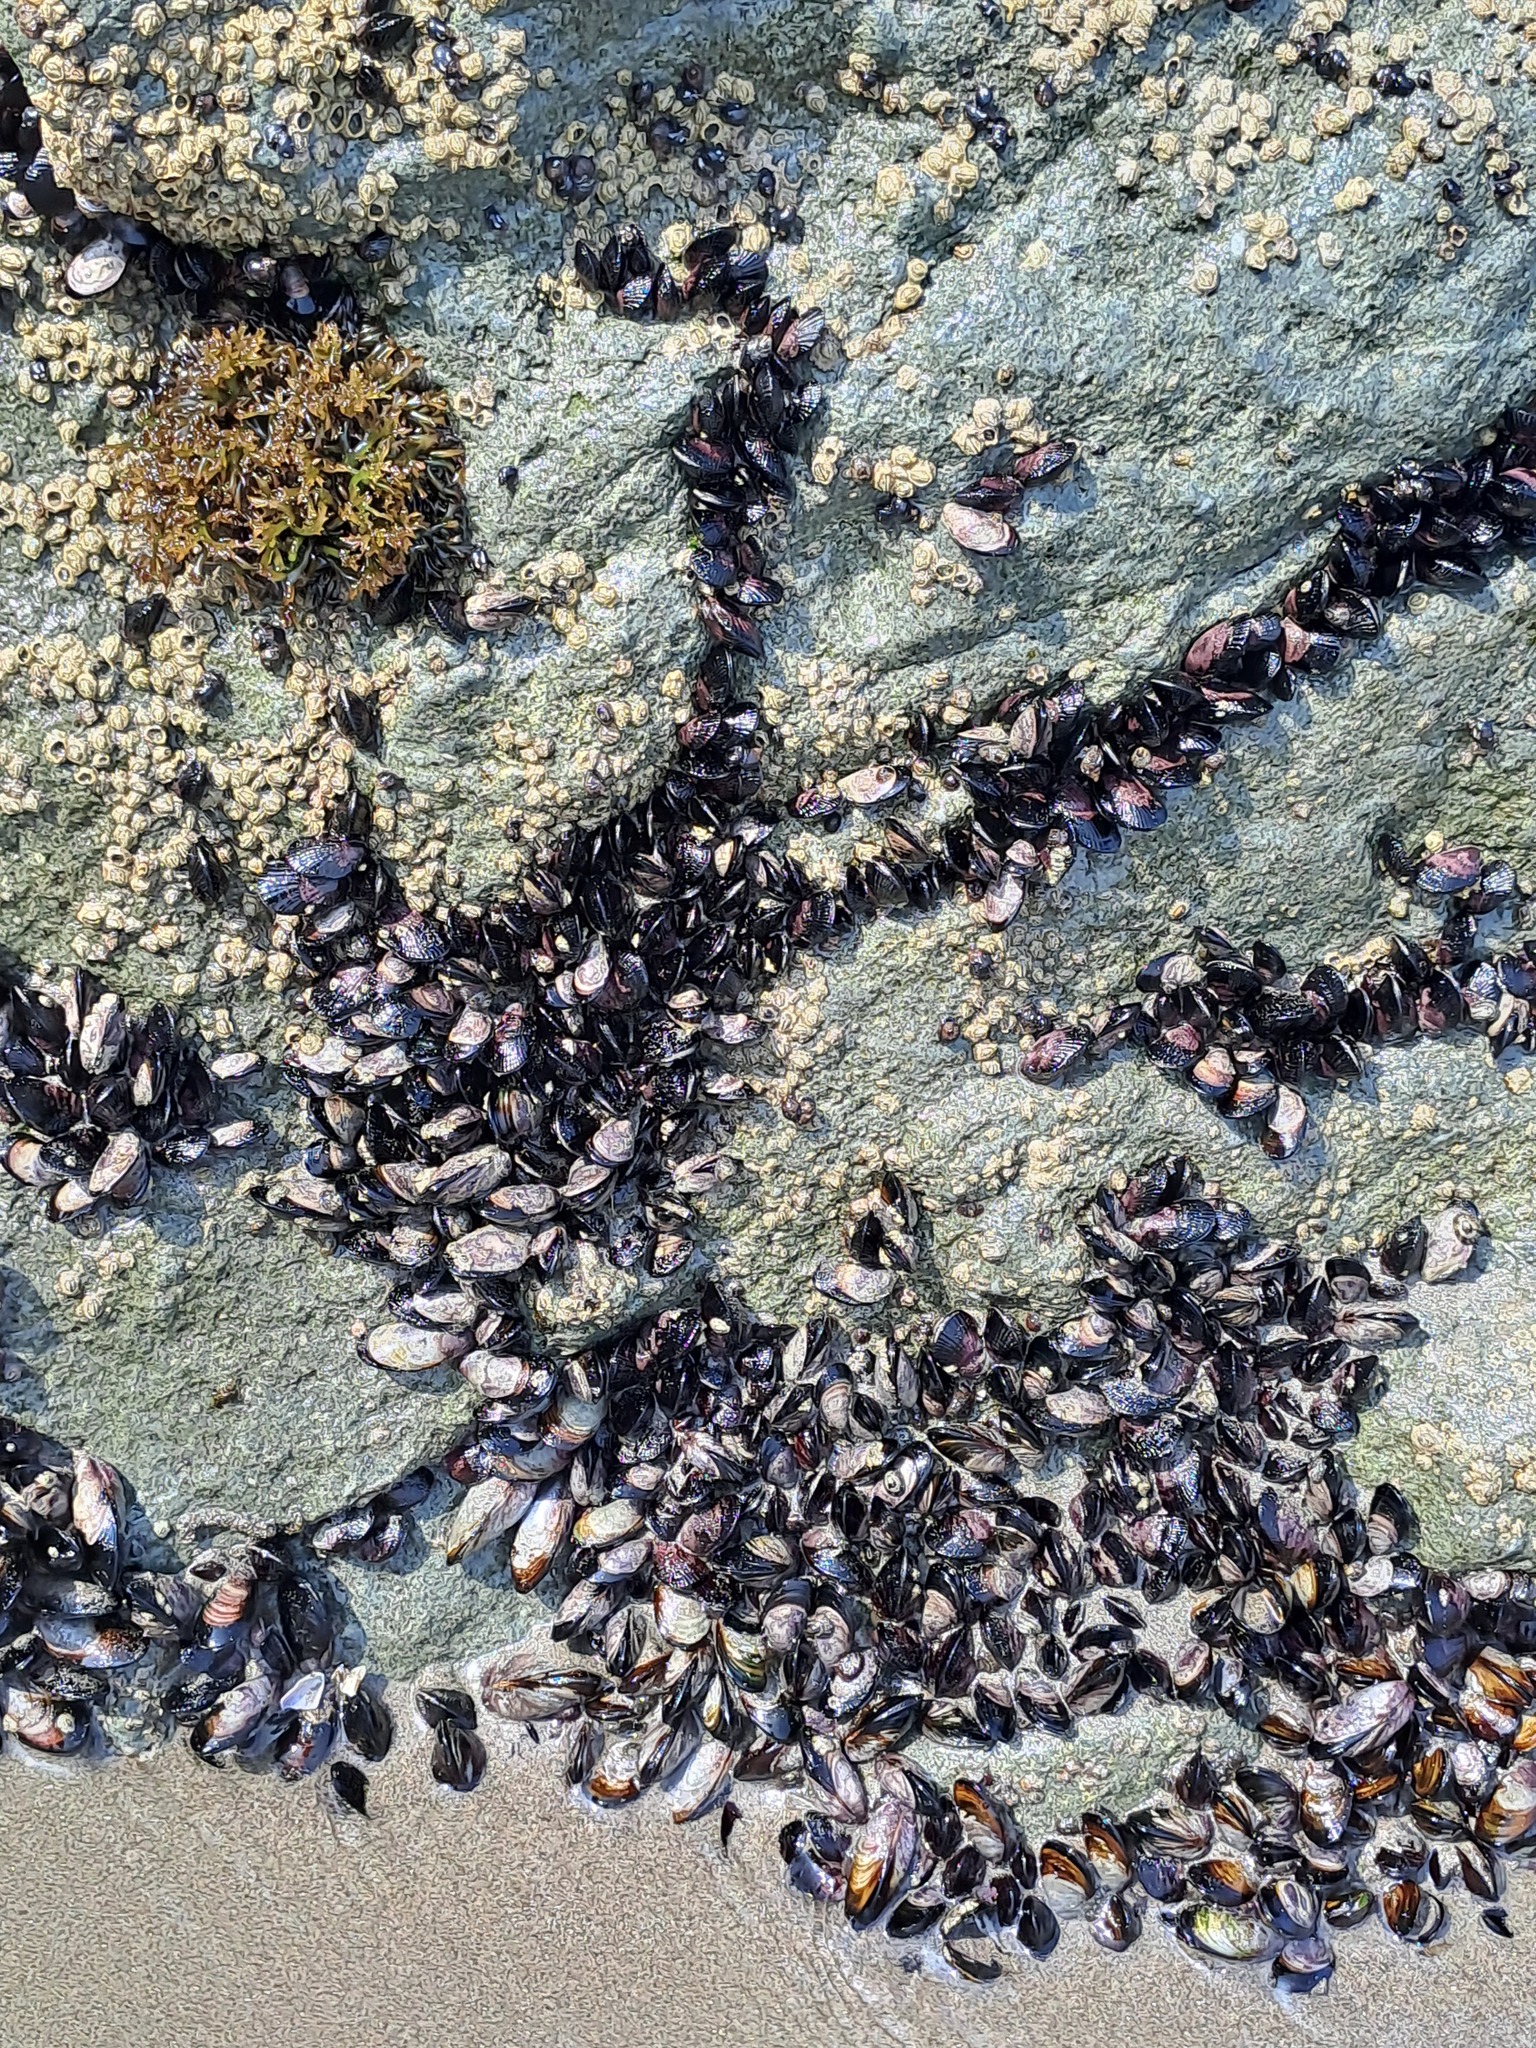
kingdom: Animalia
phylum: Mollusca
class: Bivalvia
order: Mytilida
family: Mytilidae
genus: Perumytilus
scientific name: Perumytilus purpuratus
